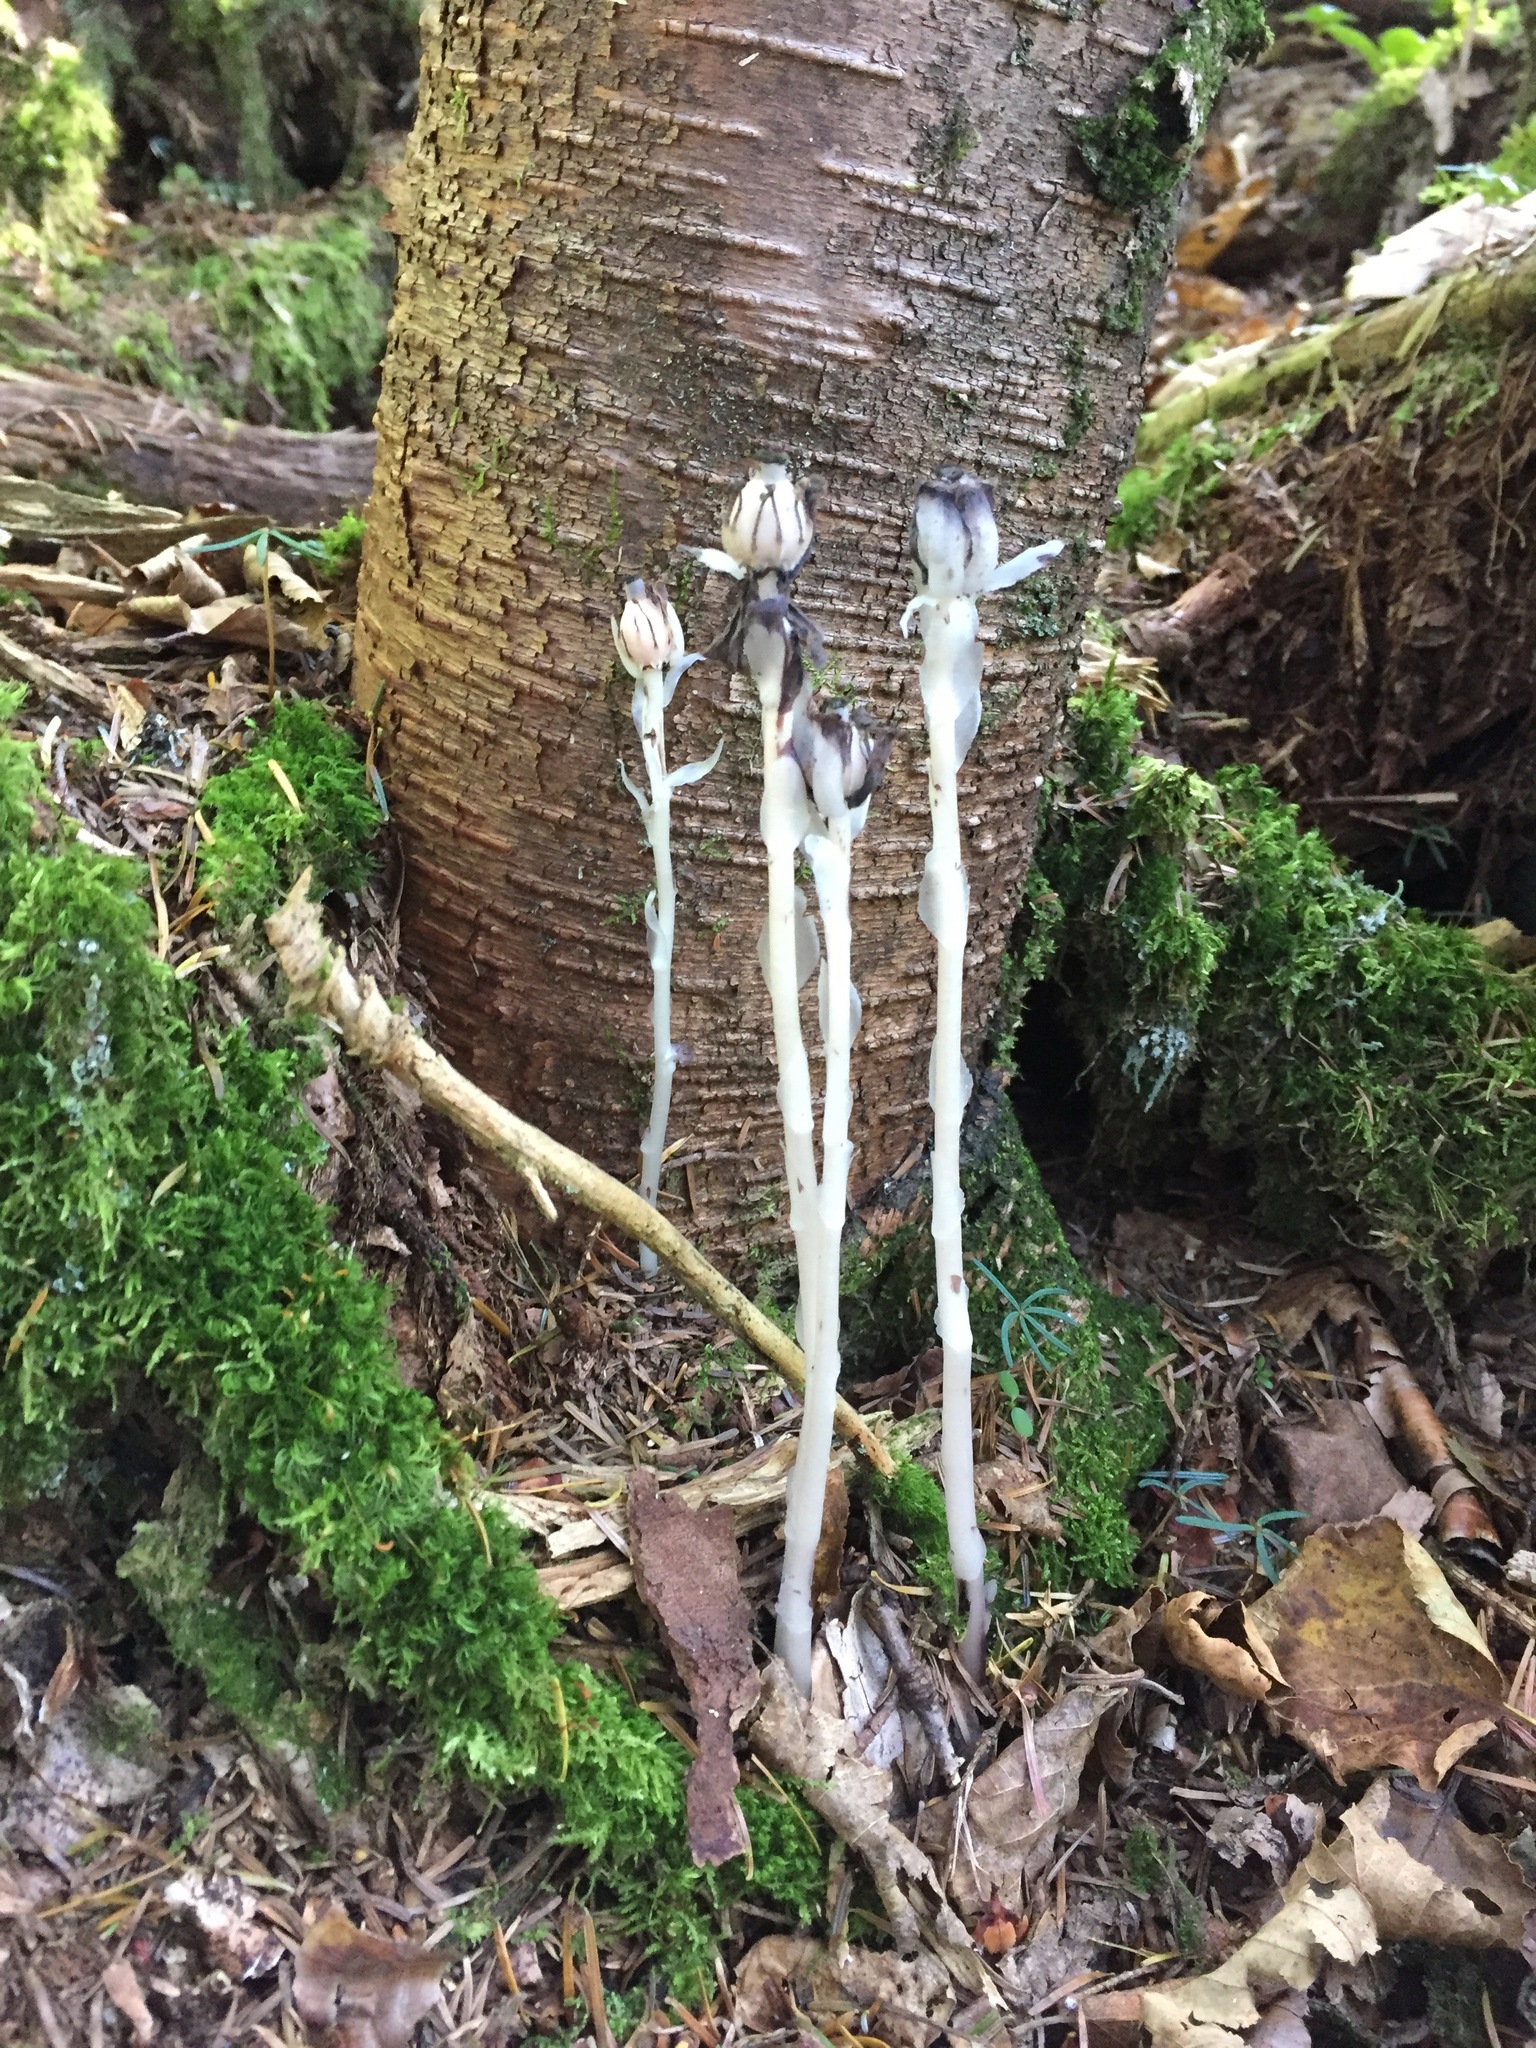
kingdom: Plantae
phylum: Tracheophyta
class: Magnoliopsida
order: Ericales
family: Ericaceae
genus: Monotropa
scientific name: Monotropa uniflora
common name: Convulsion root
